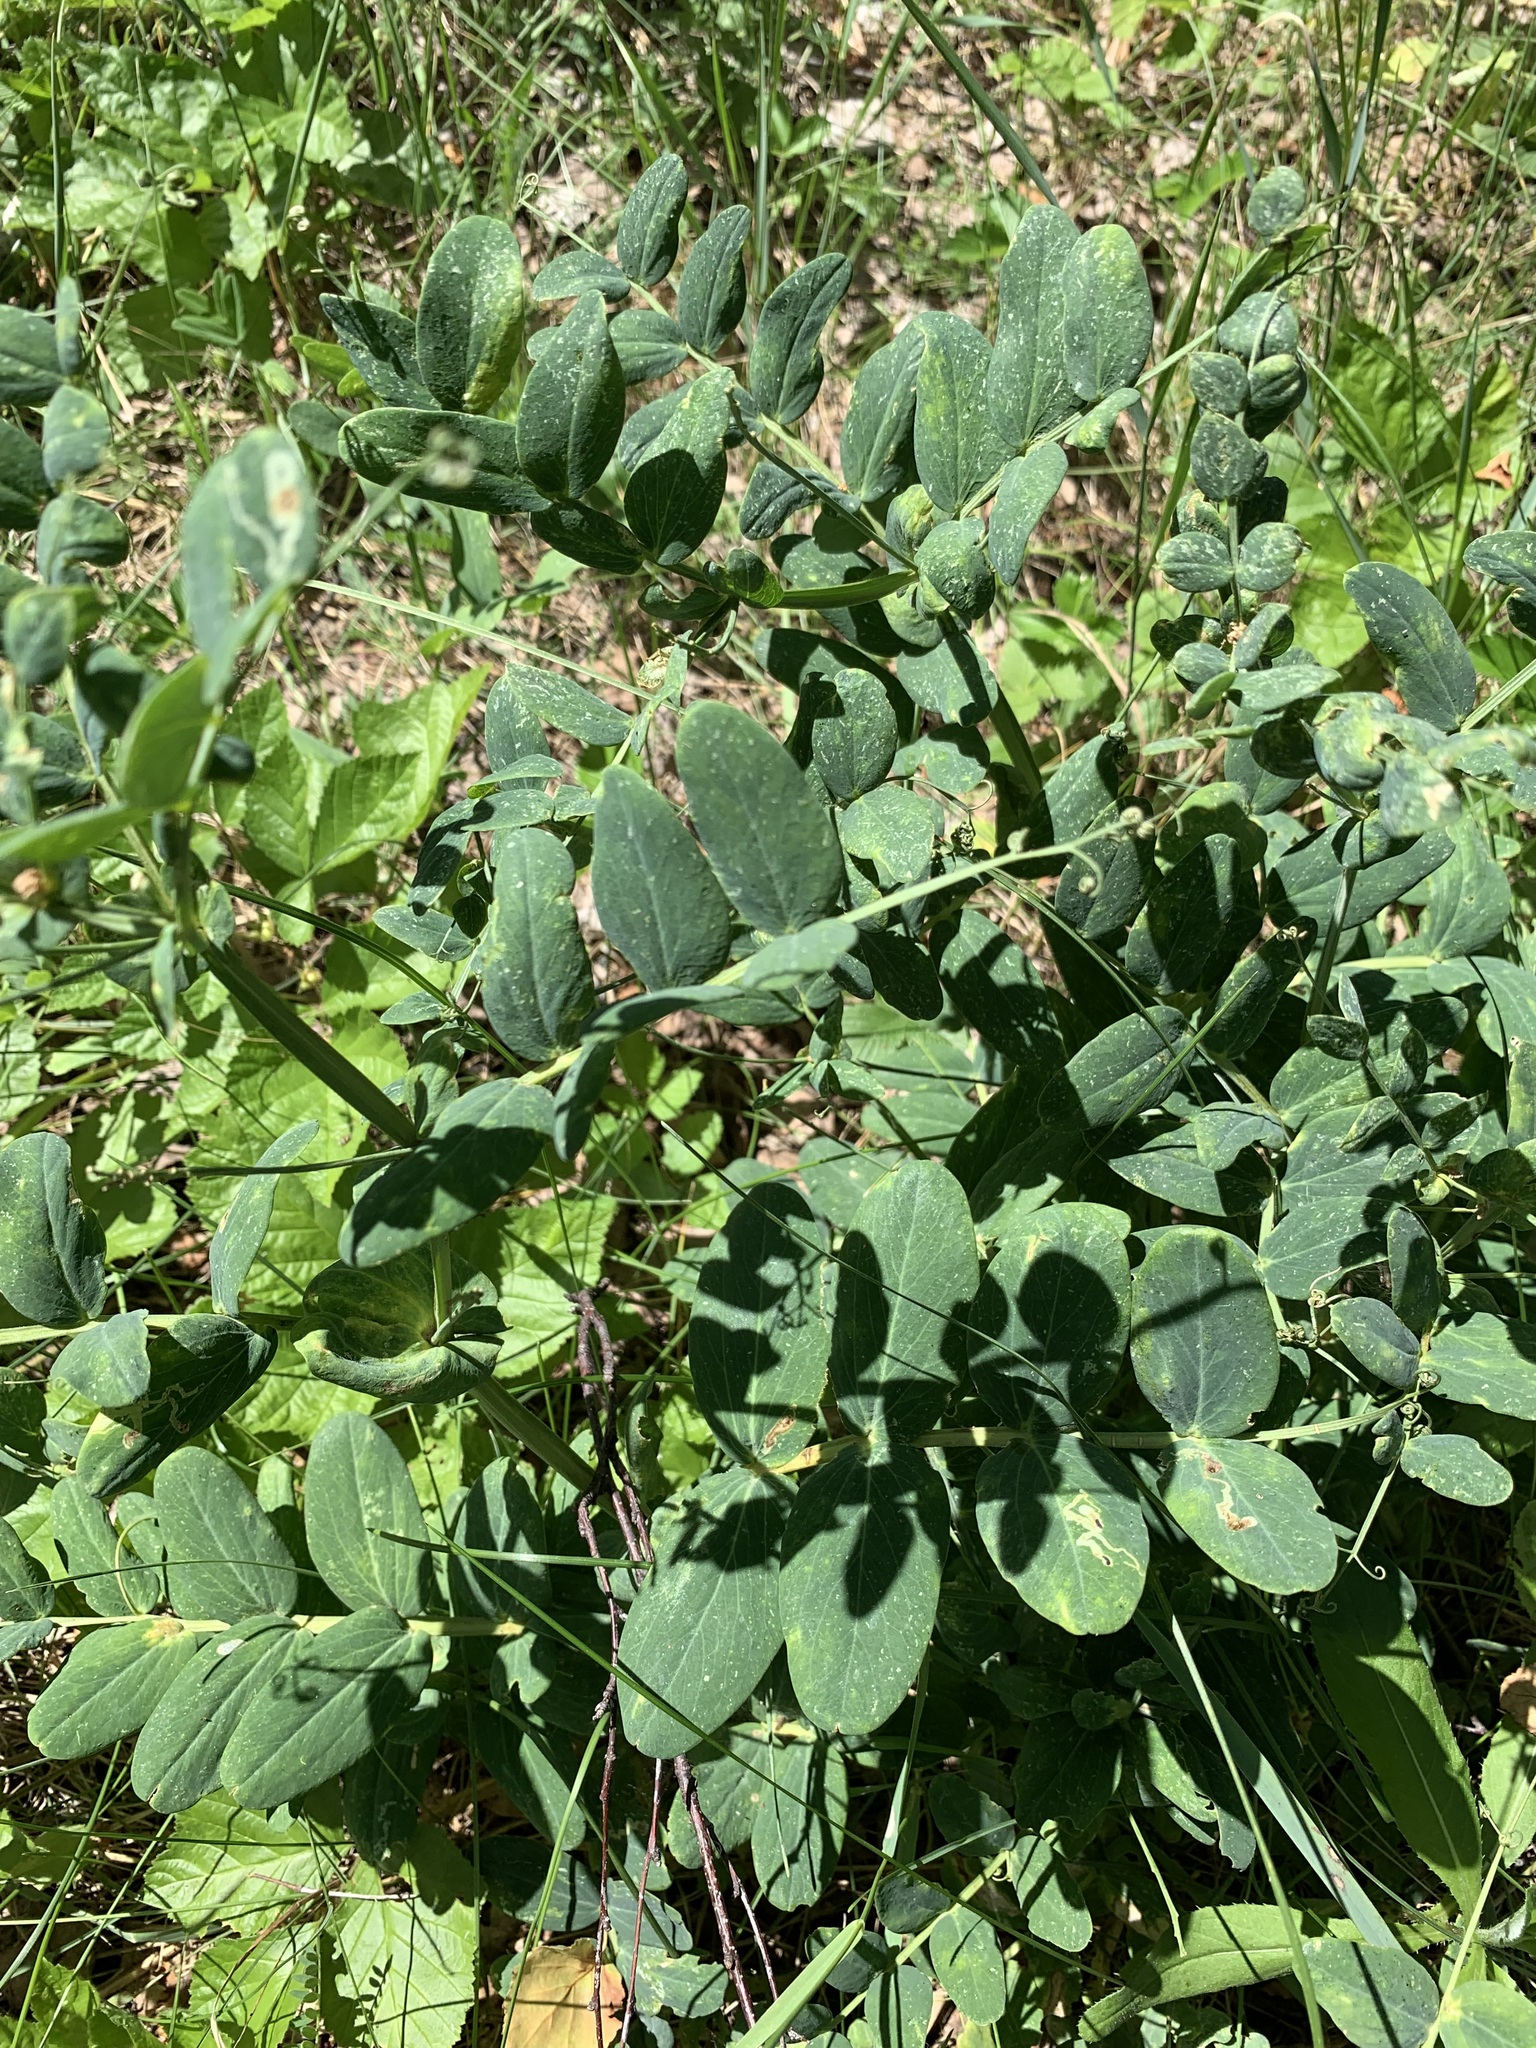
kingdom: Plantae
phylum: Tracheophyta
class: Magnoliopsida
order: Fabales
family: Fabaceae
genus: Lathyrus
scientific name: Lathyrus pisiformis
